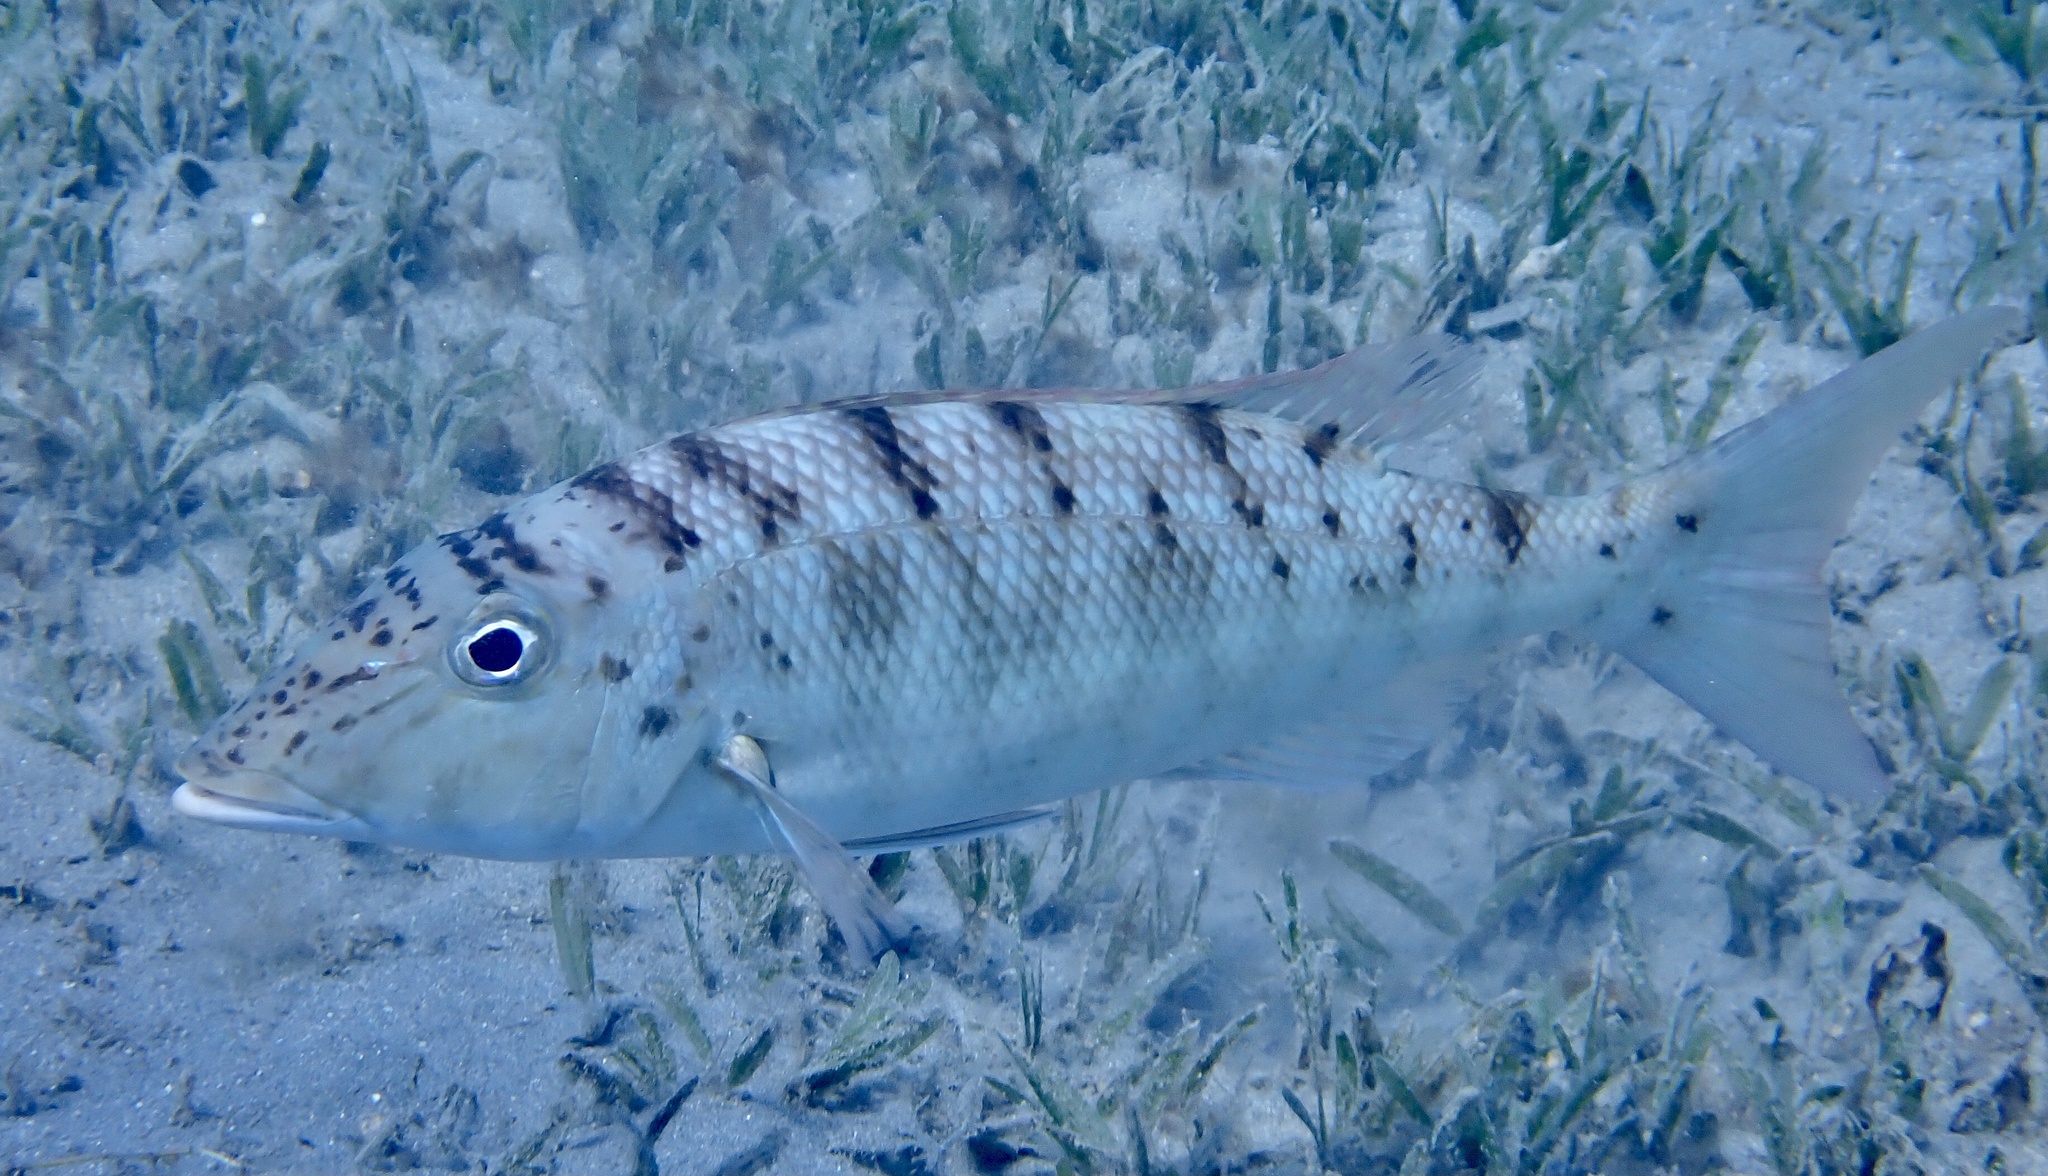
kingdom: Animalia
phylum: Chordata
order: Perciformes
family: Lethrinidae
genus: Lethrinus
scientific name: Lethrinus mahsena
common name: Sky emperor
